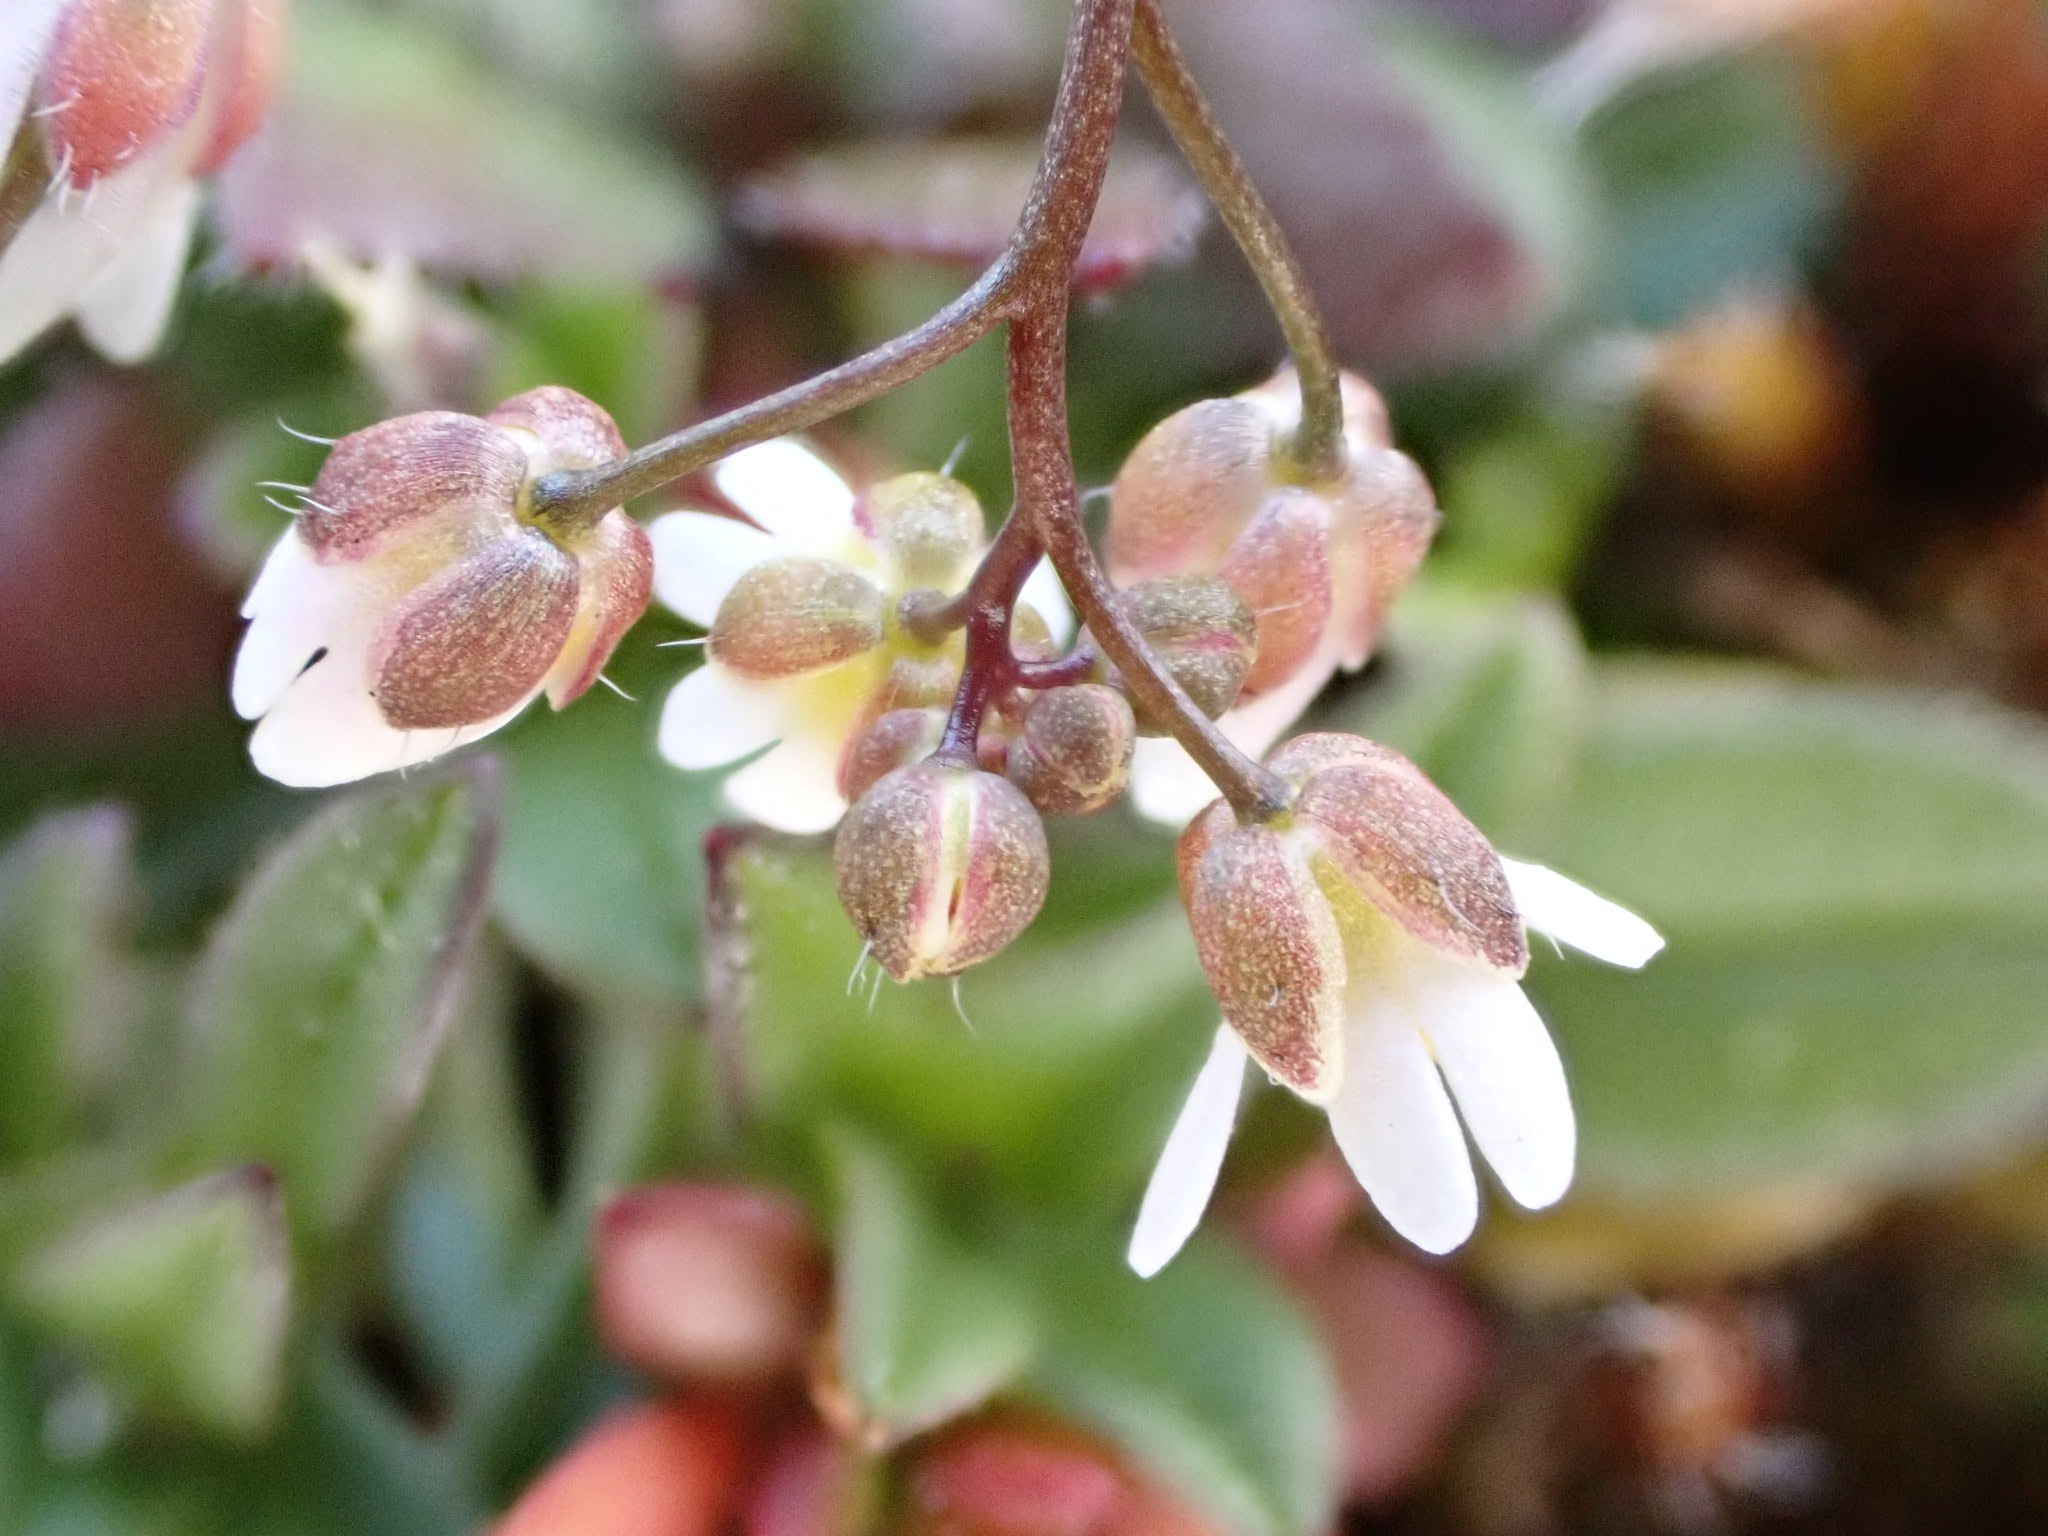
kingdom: Plantae
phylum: Tracheophyta
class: Magnoliopsida
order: Brassicales
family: Brassicaceae
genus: Draba
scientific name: Draba verna
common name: Spring draba
